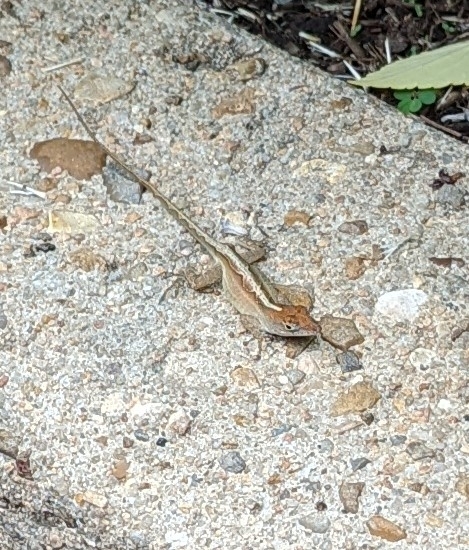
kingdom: Animalia
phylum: Chordata
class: Squamata
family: Dactyloidae
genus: Anolis
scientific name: Anolis sagrei
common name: Brown anole
